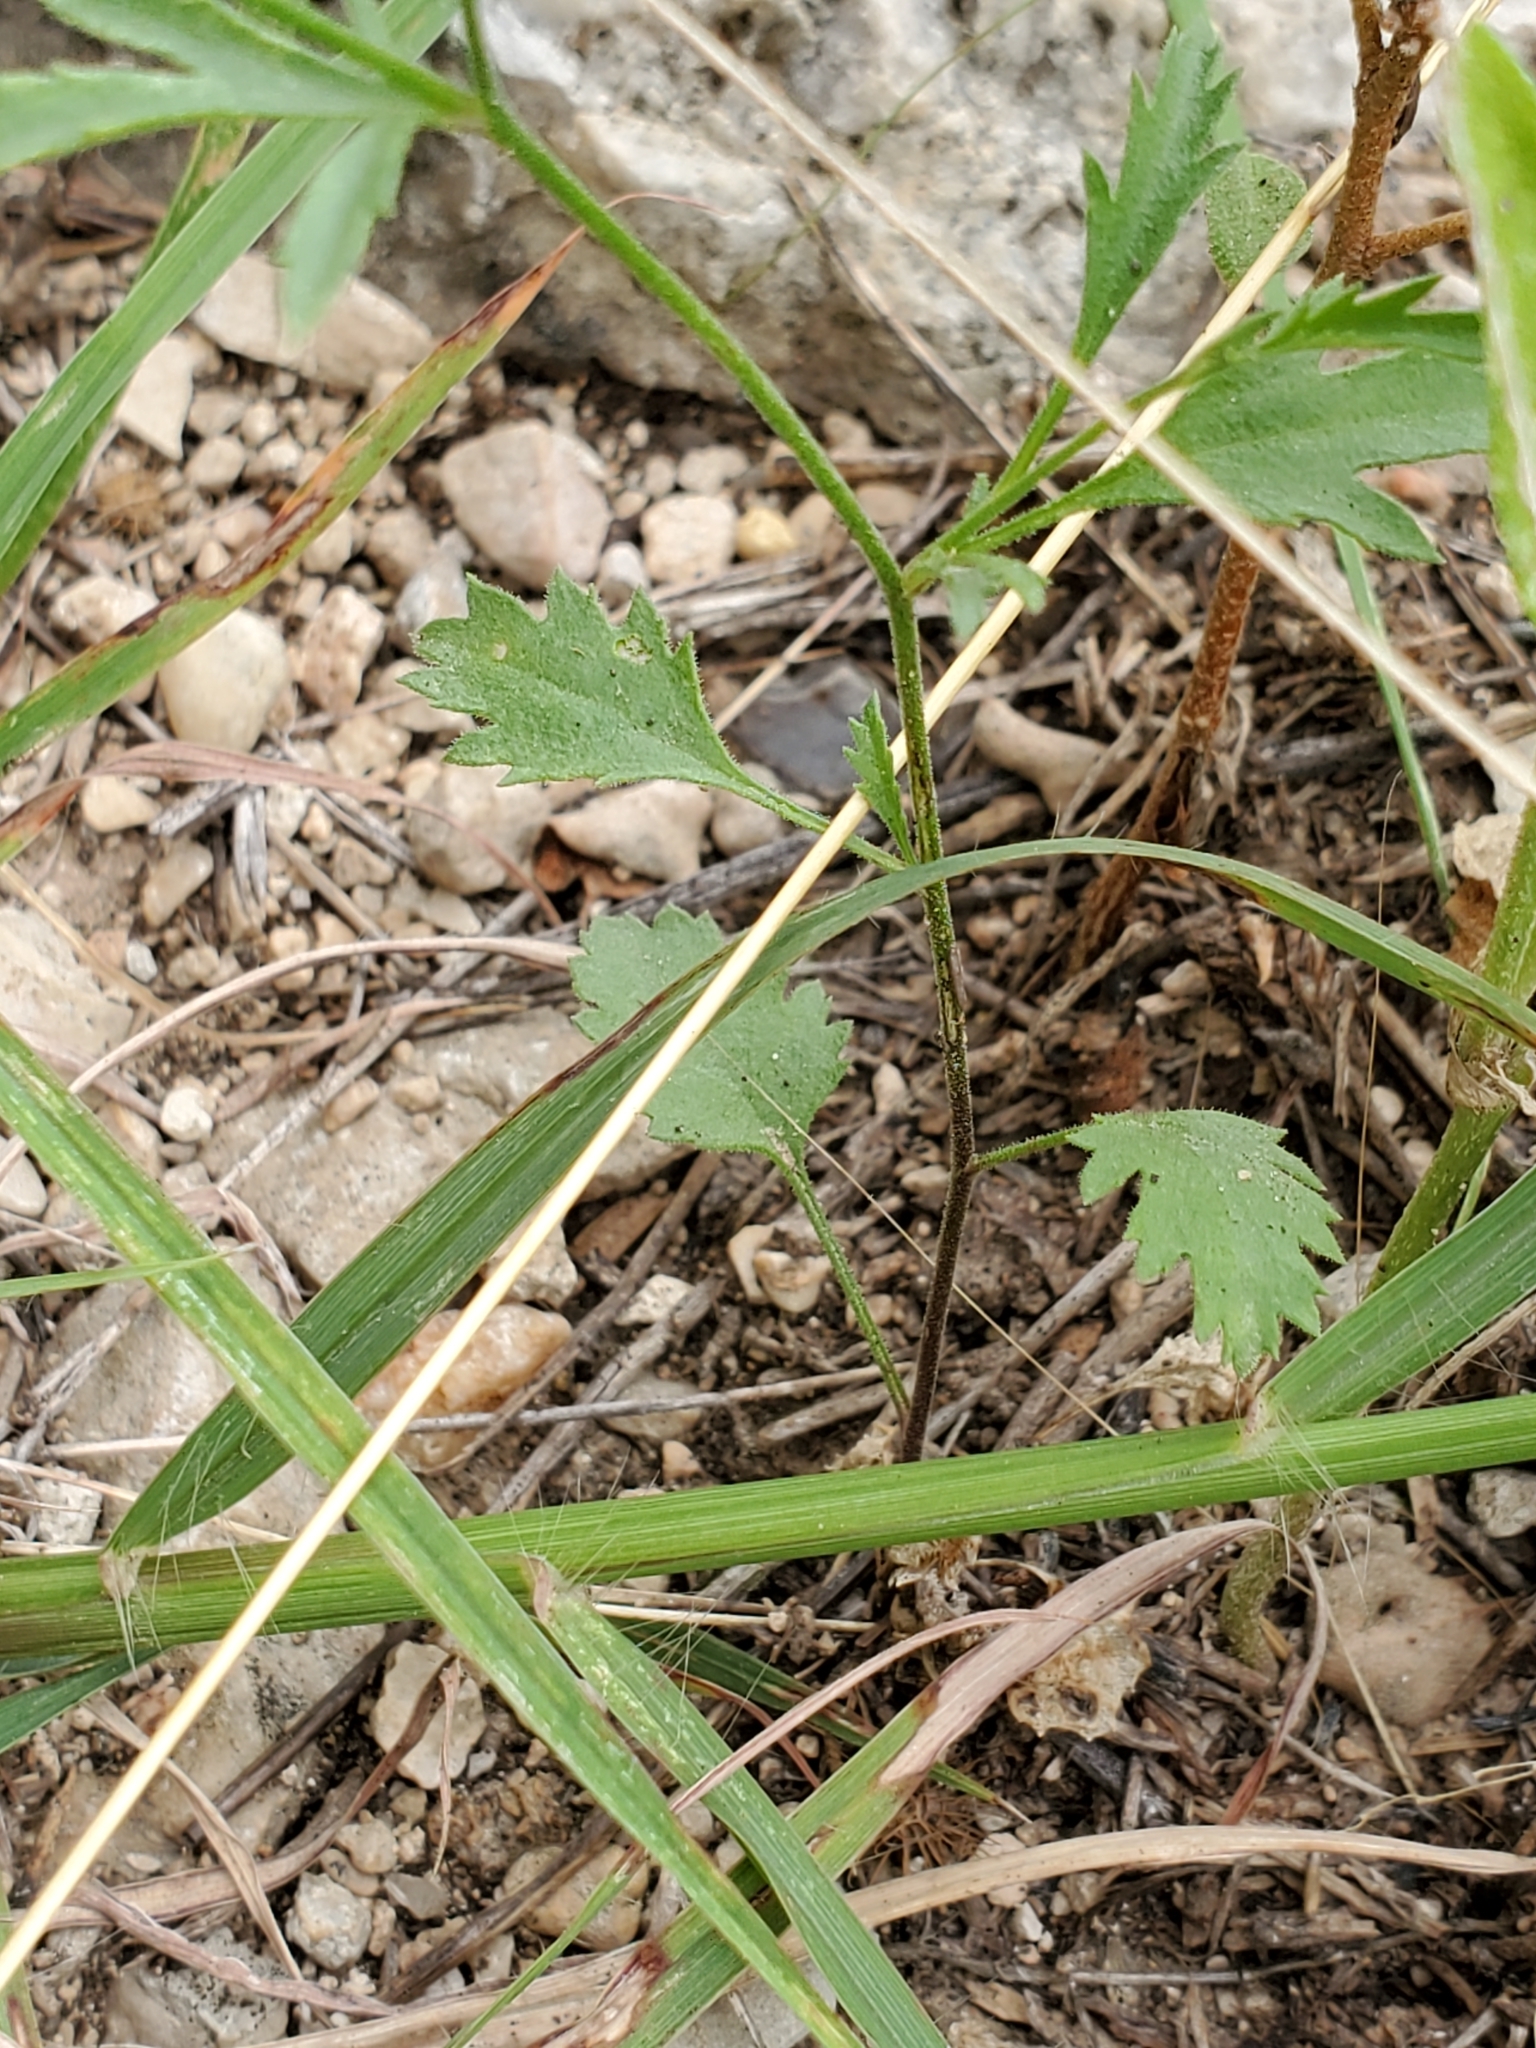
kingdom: Plantae
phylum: Tracheophyta
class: Magnoliopsida
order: Ericales
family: Polemoniaceae
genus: Giliastrum
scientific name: Giliastrum incisum
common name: Splitleaf gilia
